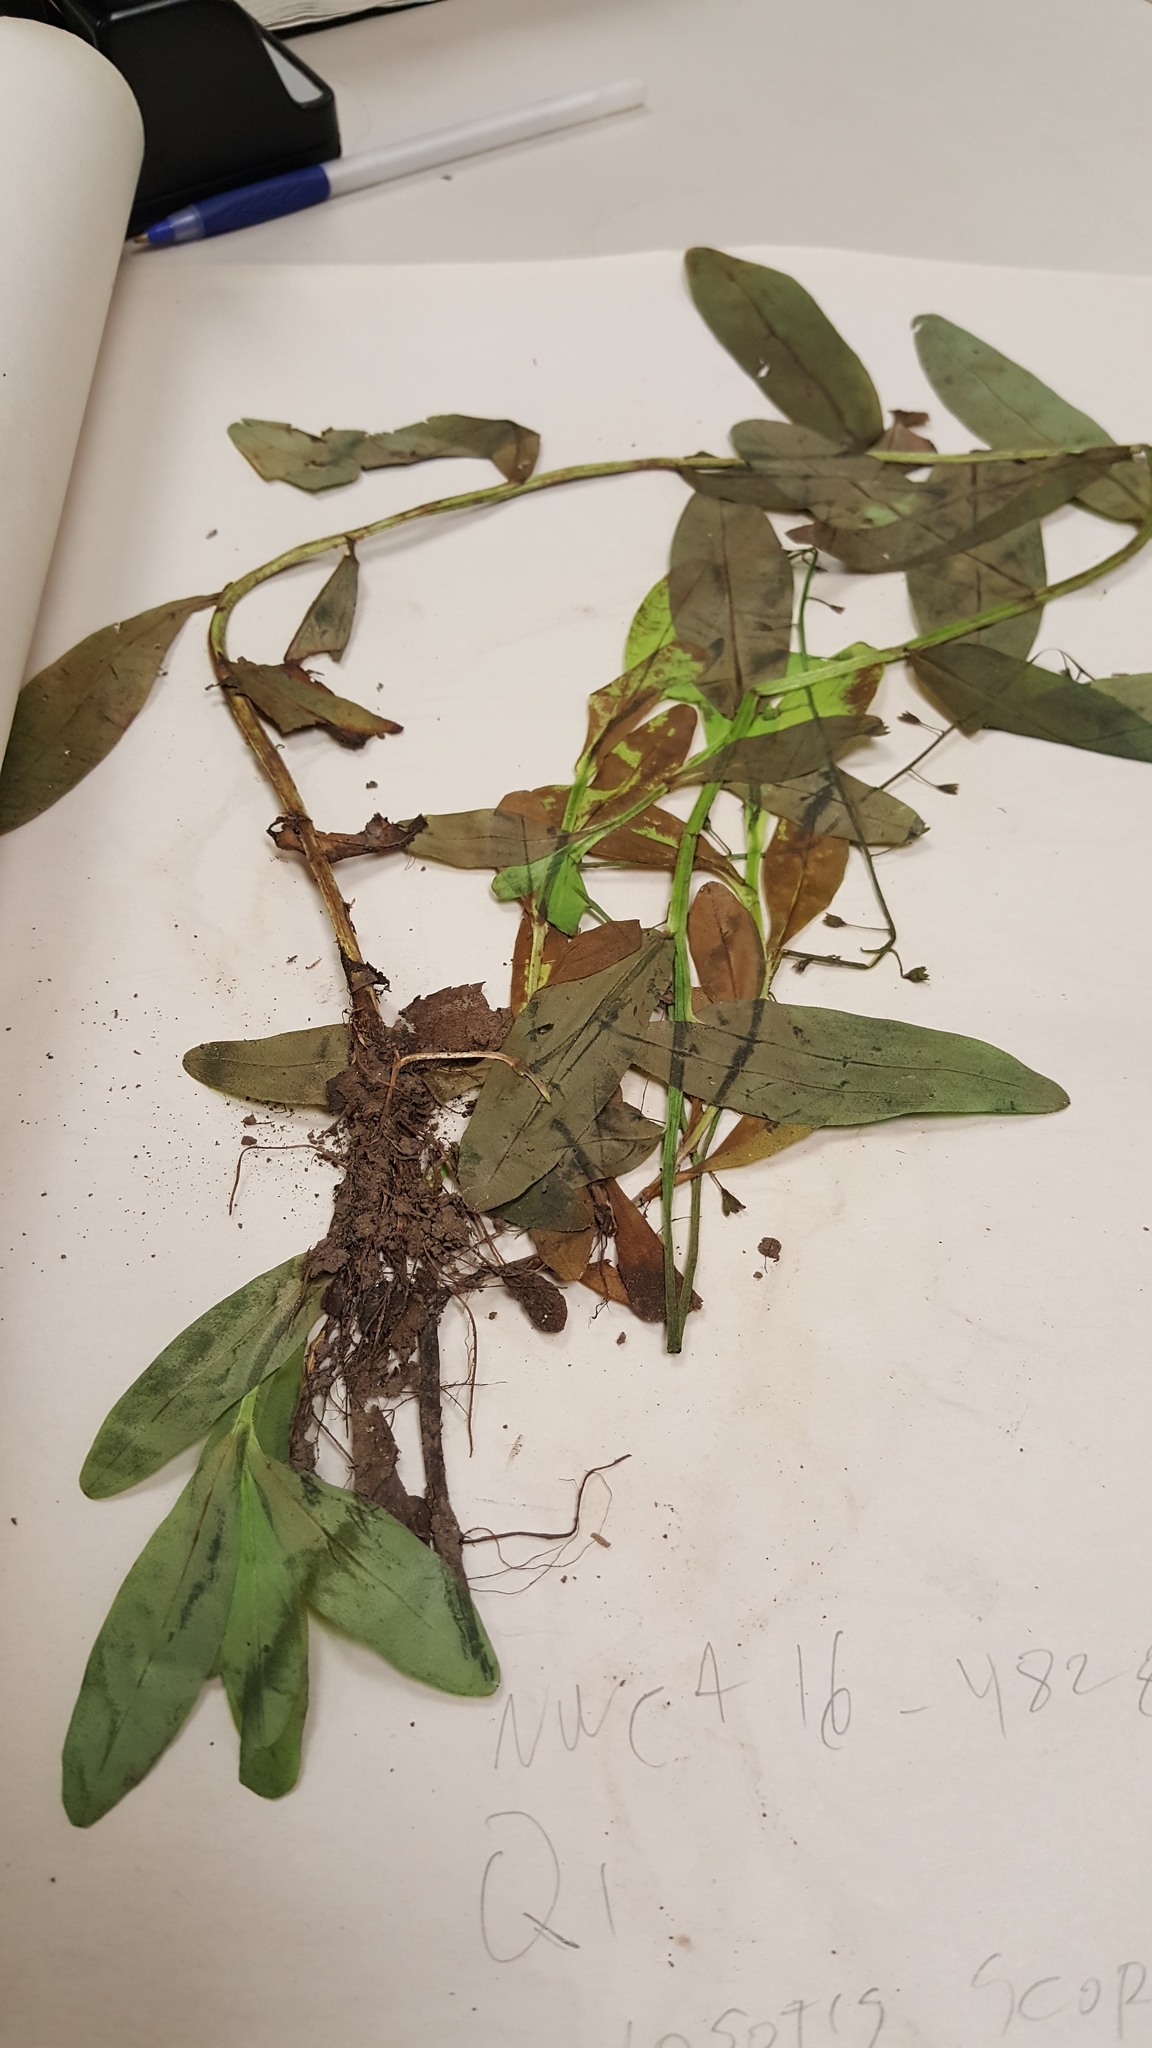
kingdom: Plantae
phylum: Tracheophyta
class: Polypodiopsida
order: Osmundales
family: Osmundaceae
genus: Osmunda
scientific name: Osmunda spectabilis
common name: American royal fern
